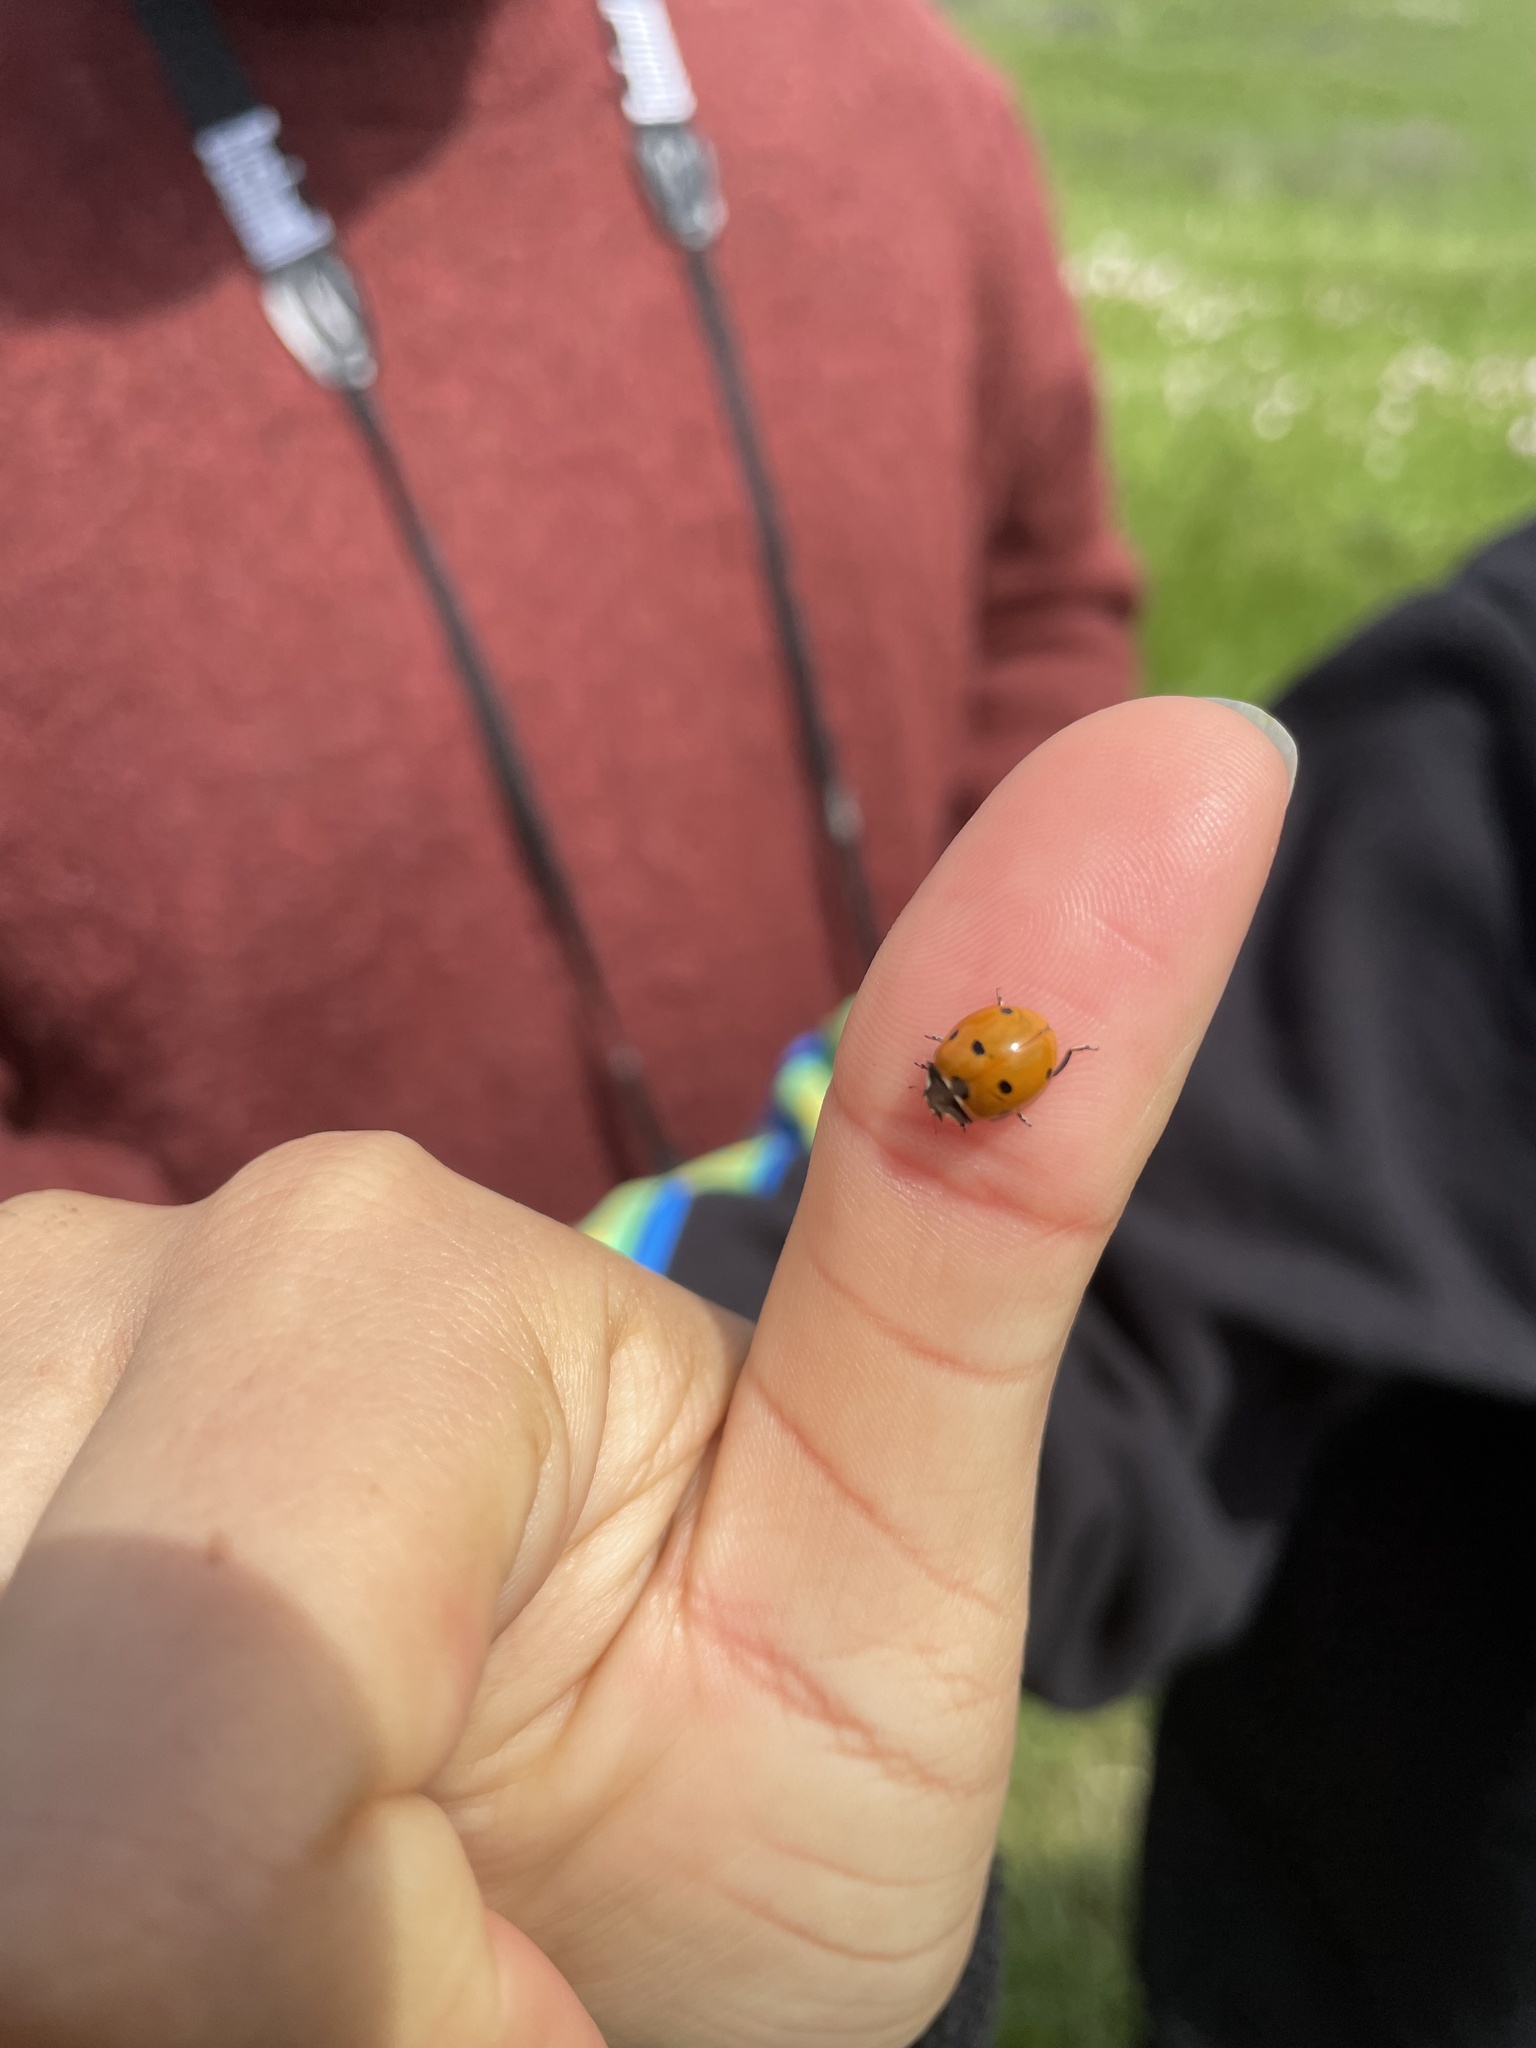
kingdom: Animalia
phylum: Arthropoda
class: Insecta
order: Coleoptera
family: Coccinellidae
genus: Coccinella
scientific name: Coccinella septempunctata
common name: Sevenspotted lady beetle
